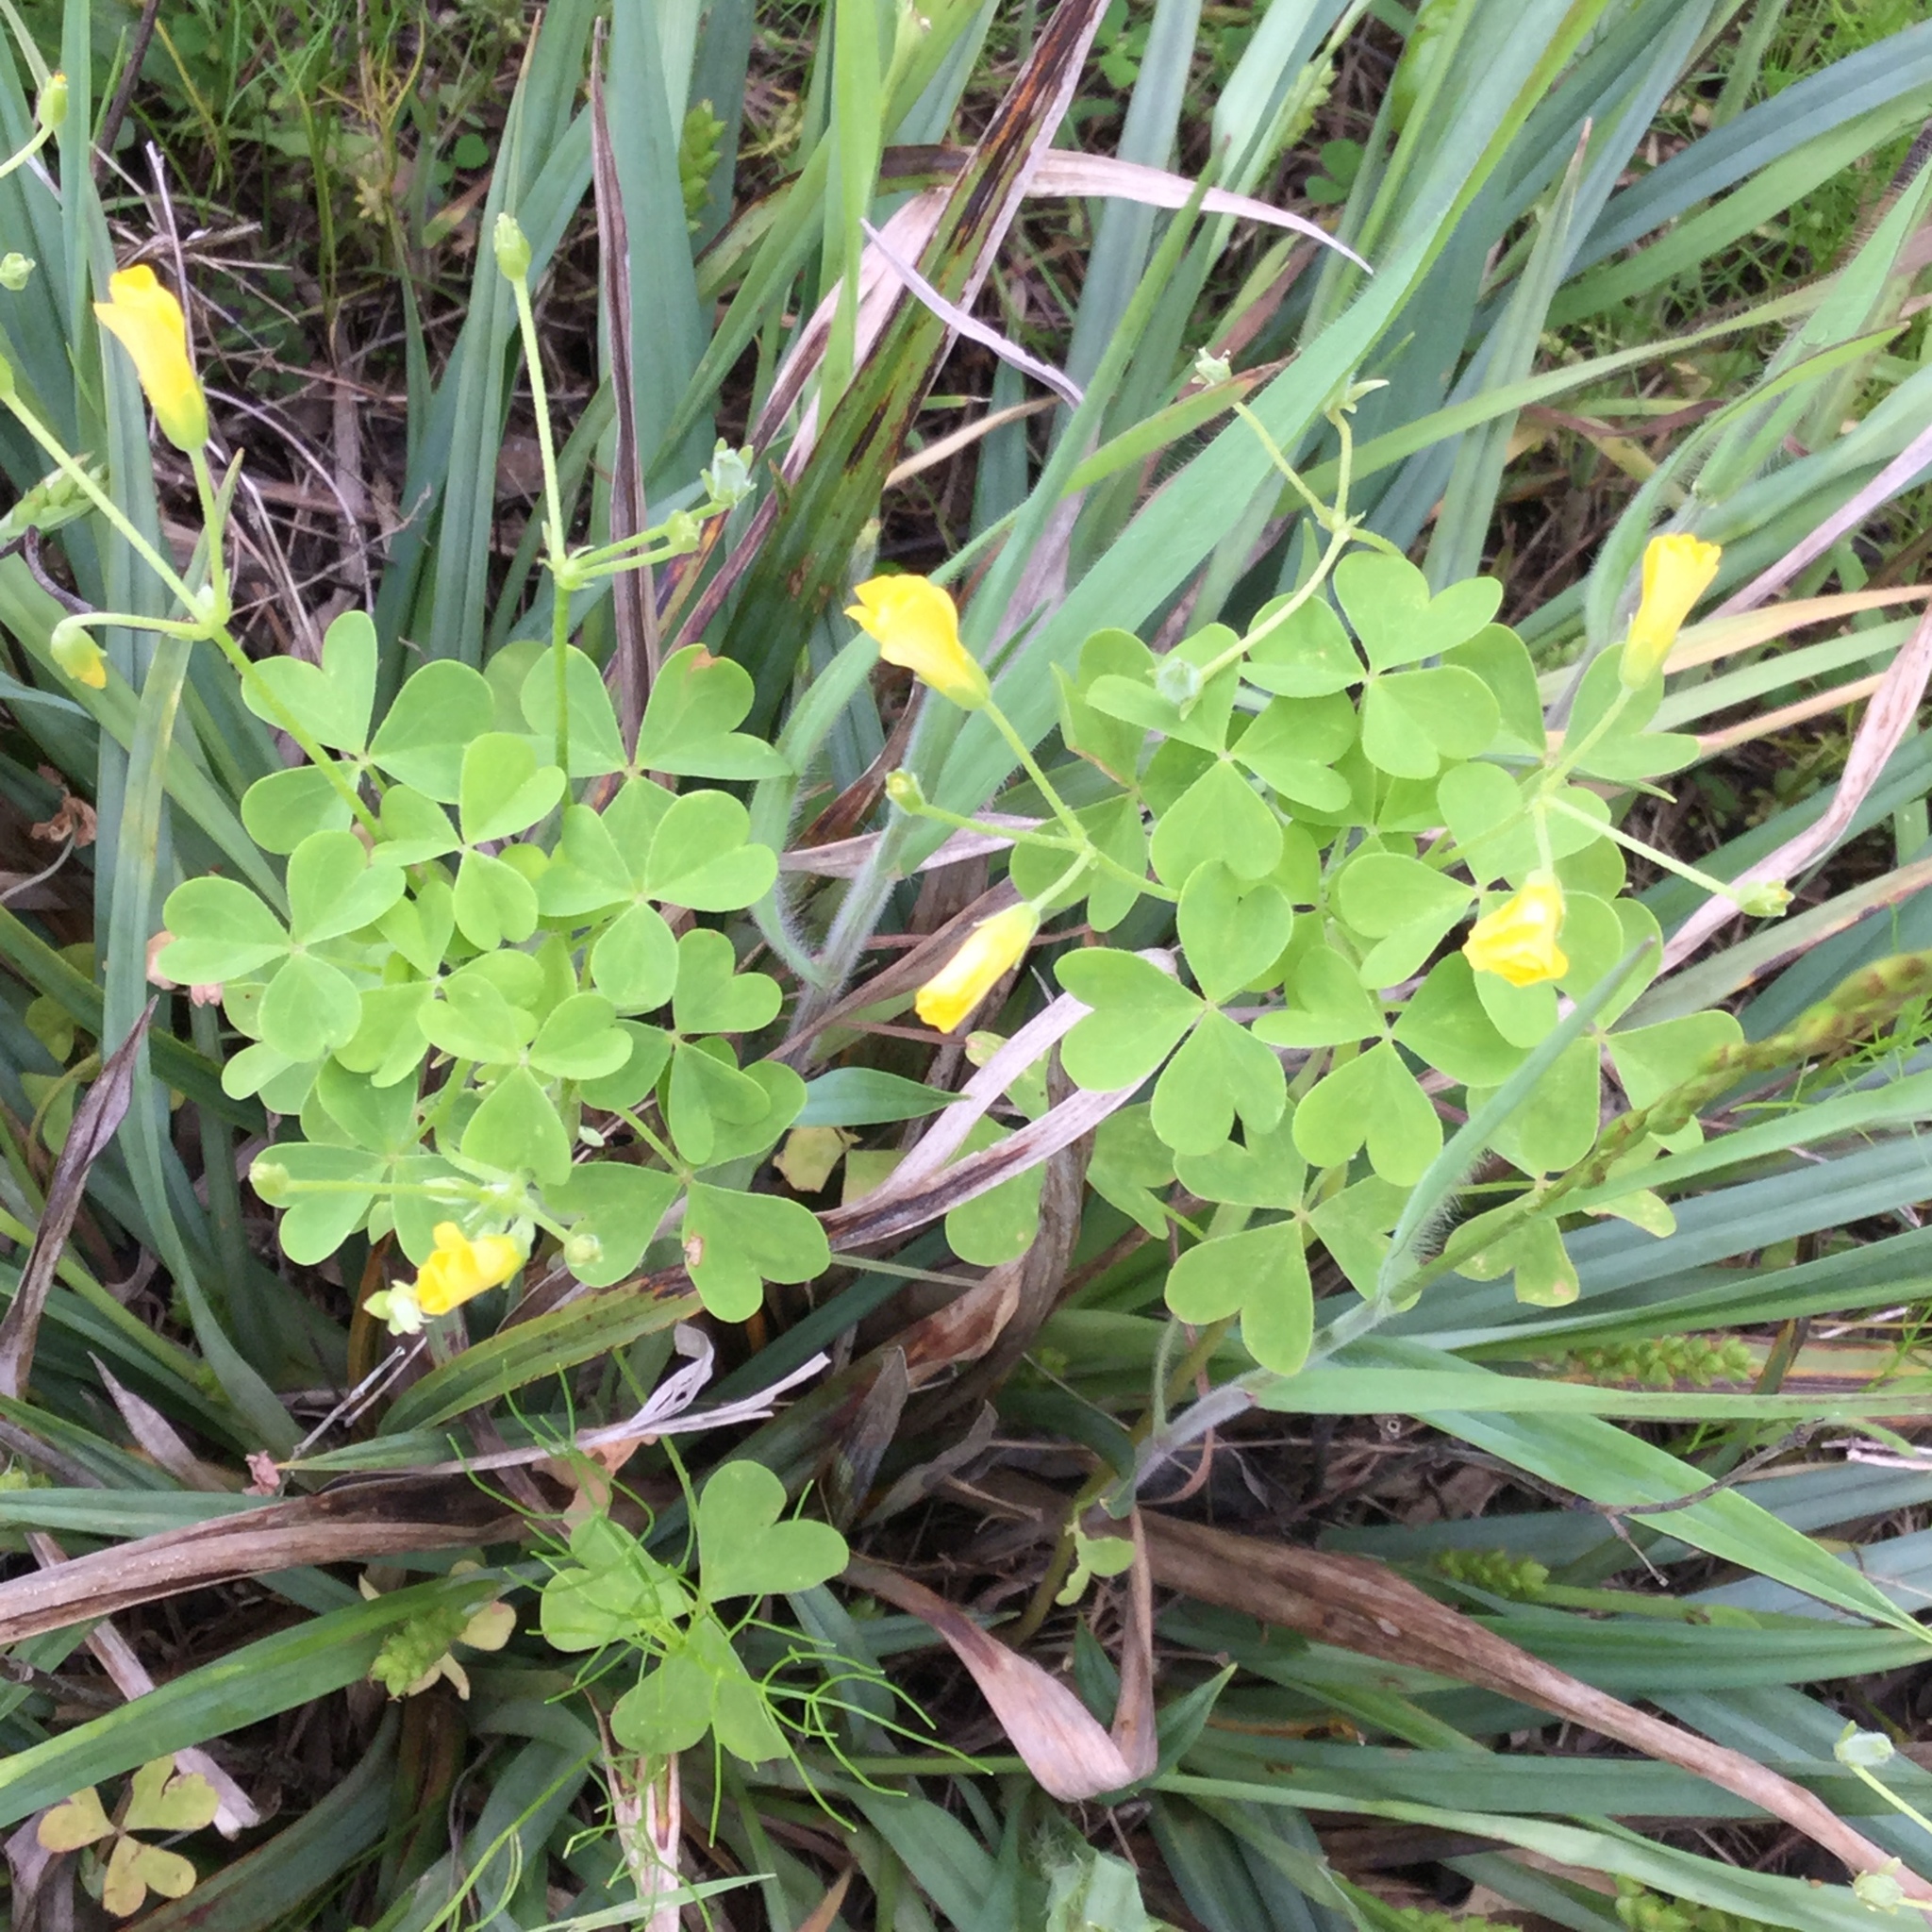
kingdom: Plantae
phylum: Tracheophyta
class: Magnoliopsida
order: Oxalidales
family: Oxalidaceae
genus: Oxalis
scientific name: Oxalis dillenii
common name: Sussex yellow-sorrel
